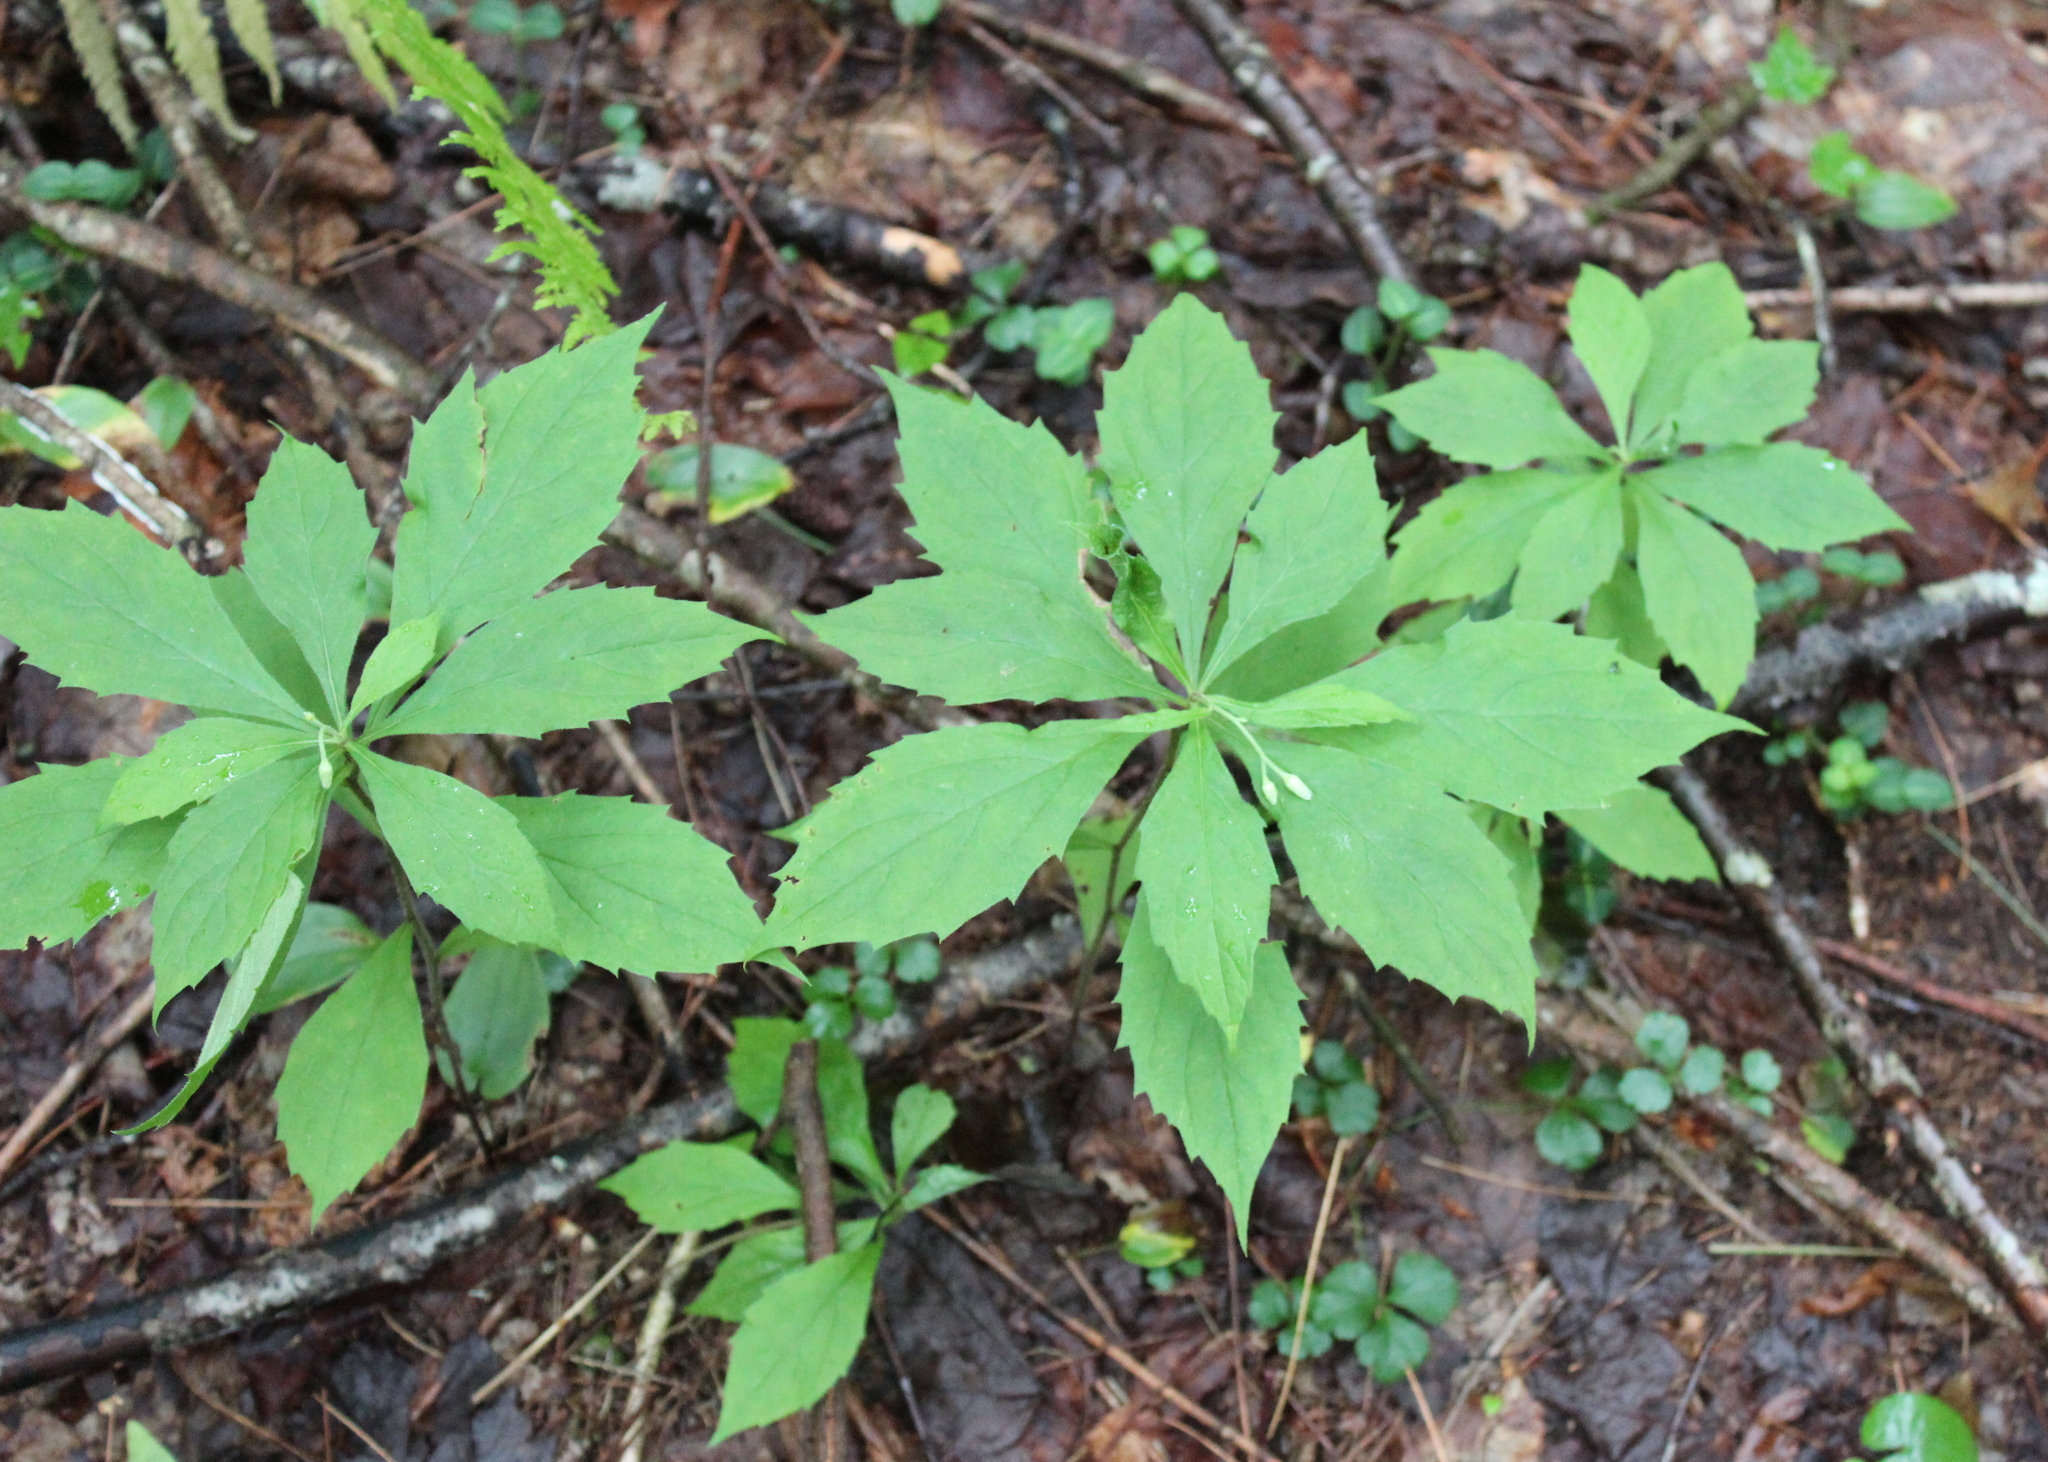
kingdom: Plantae
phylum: Tracheophyta
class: Magnoliopsida
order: Asterales
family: Asteraceae
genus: Oclemena
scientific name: Oclemena acuminata
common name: Mountain aster
